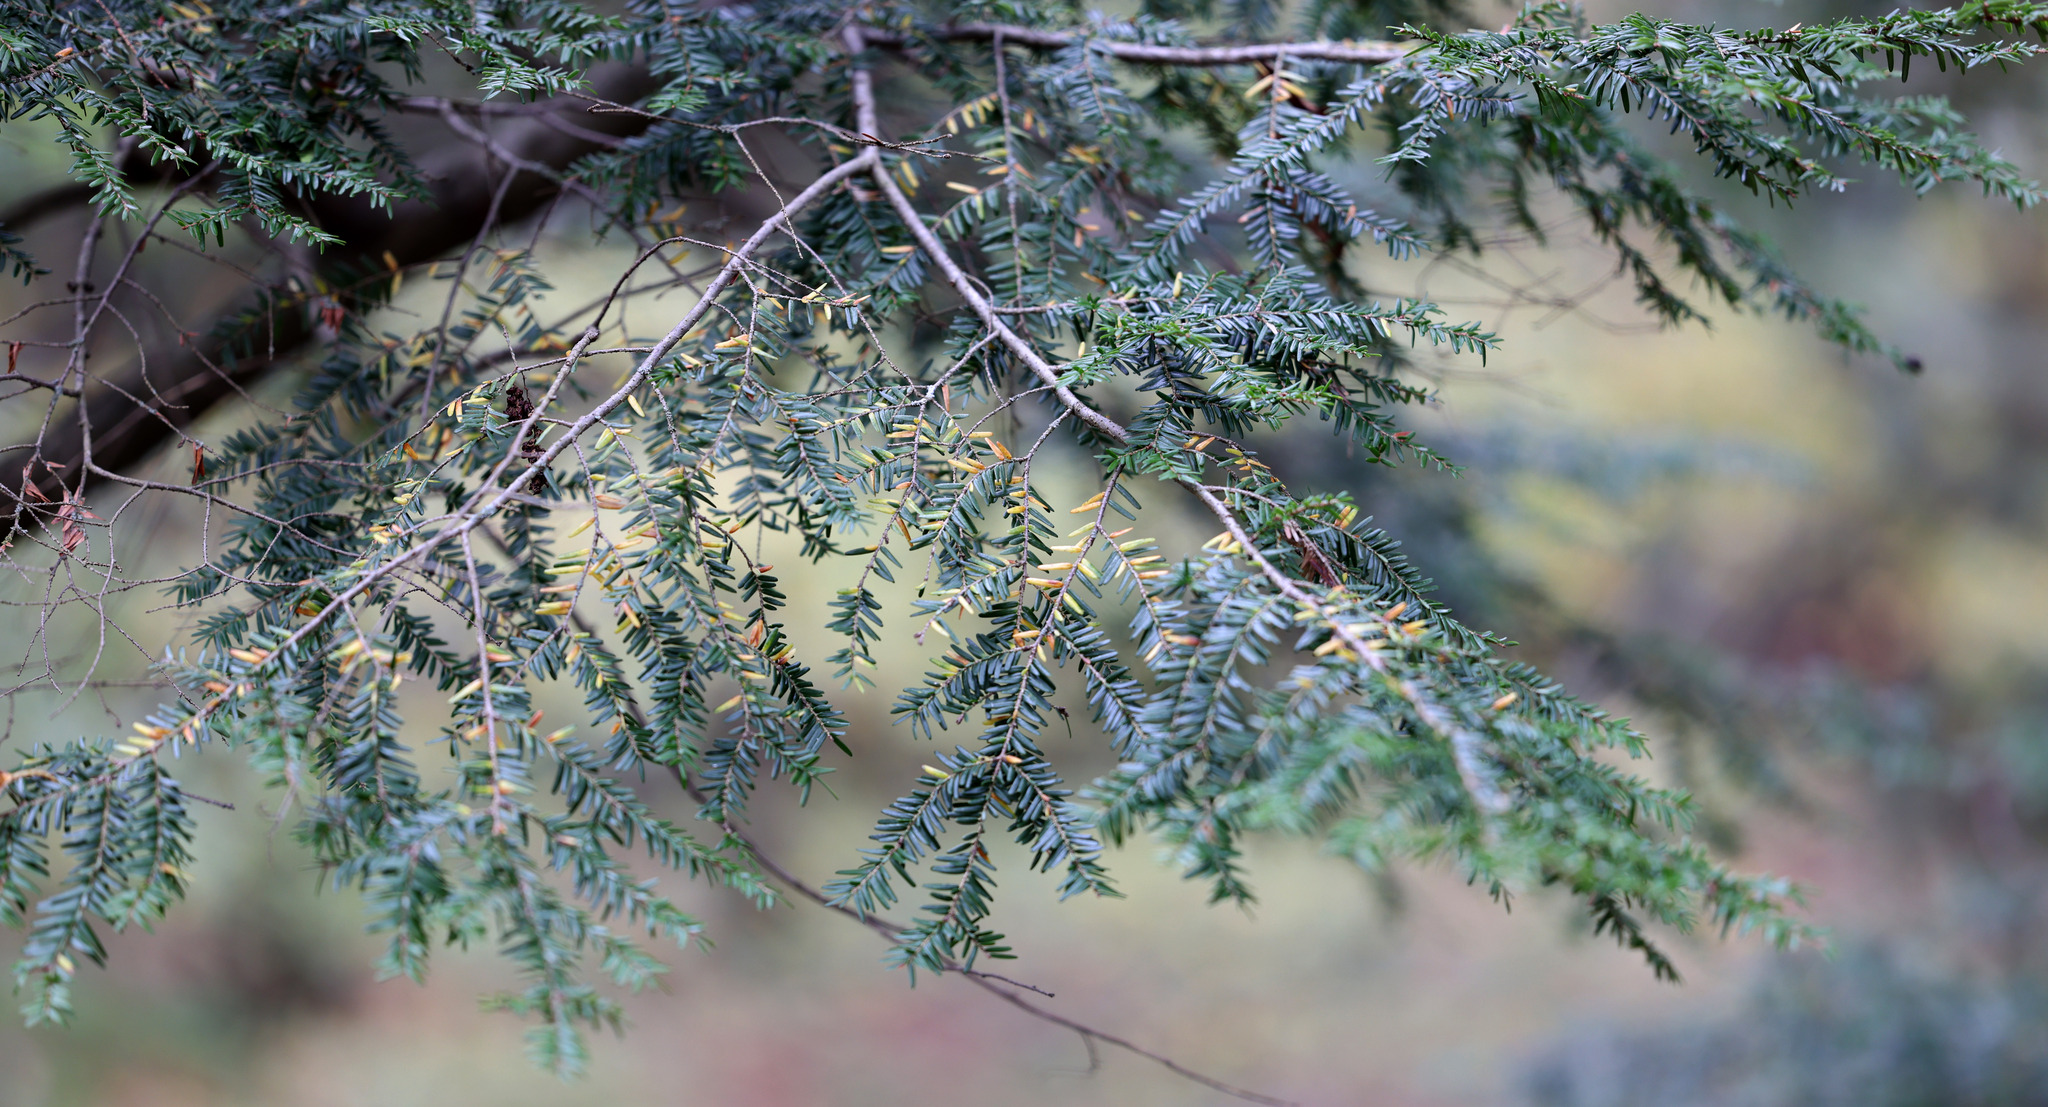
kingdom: Plantae
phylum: Tracheophyta
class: Pinopsida
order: Pinales
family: Pinaceae
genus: Tsuga
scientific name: Tsuga canadensis
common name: Eastern hemlock
